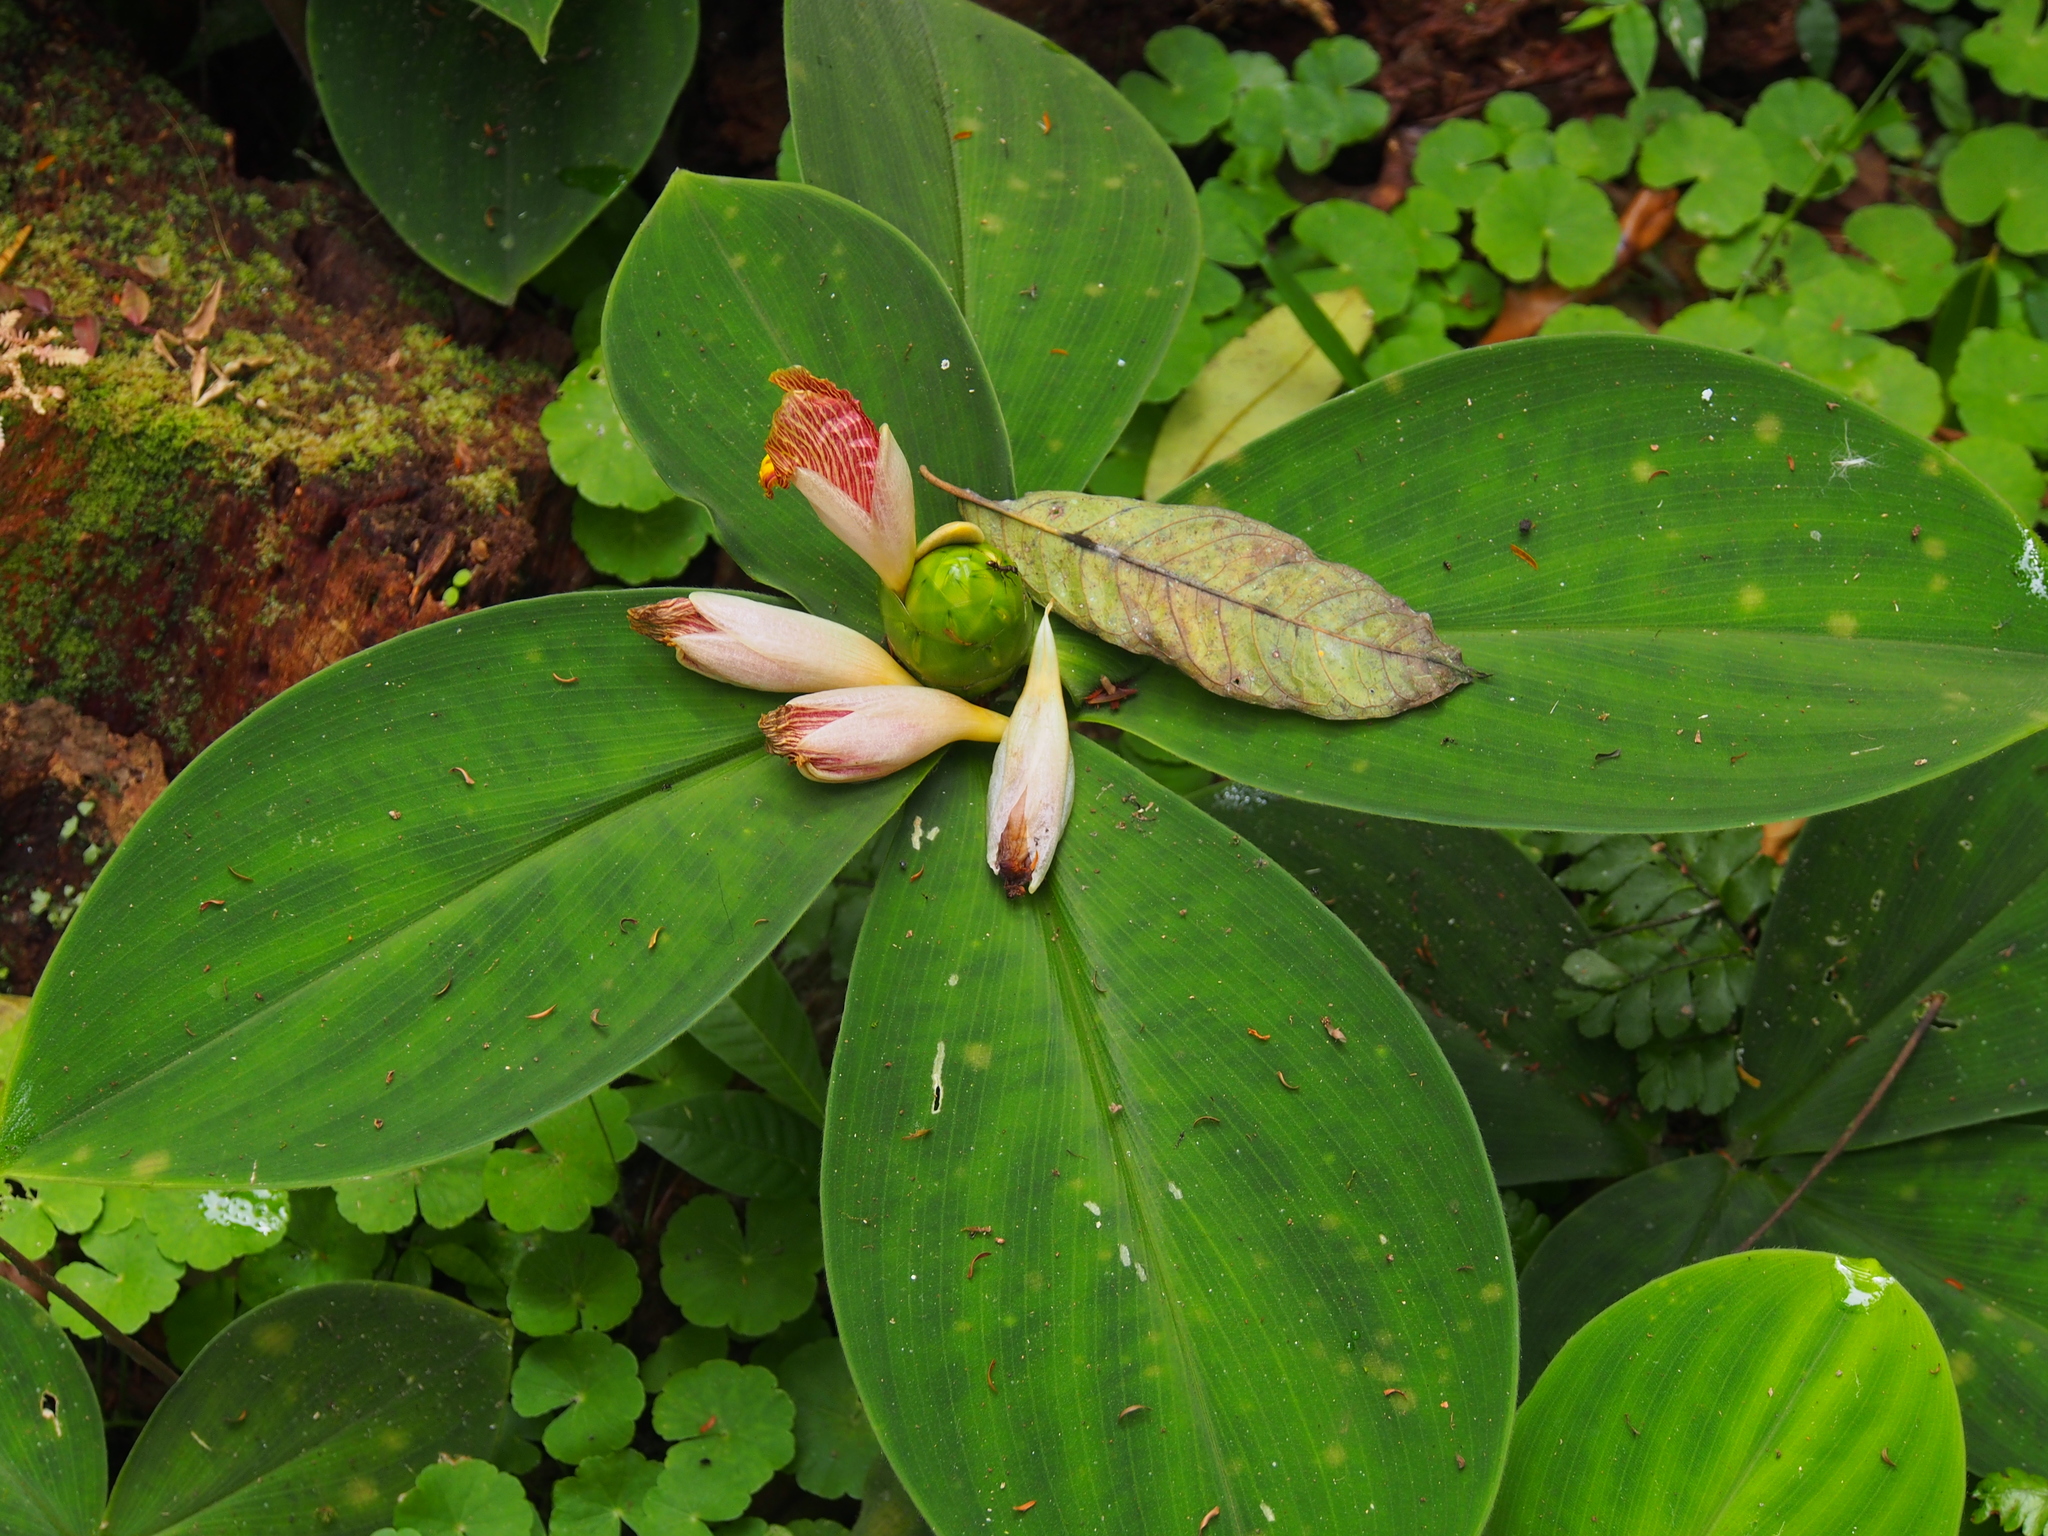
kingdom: Plantae
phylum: Tracheophyta
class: Liliopsida
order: Zingiberales
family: Costaceae
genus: Costus
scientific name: Costus elegans
